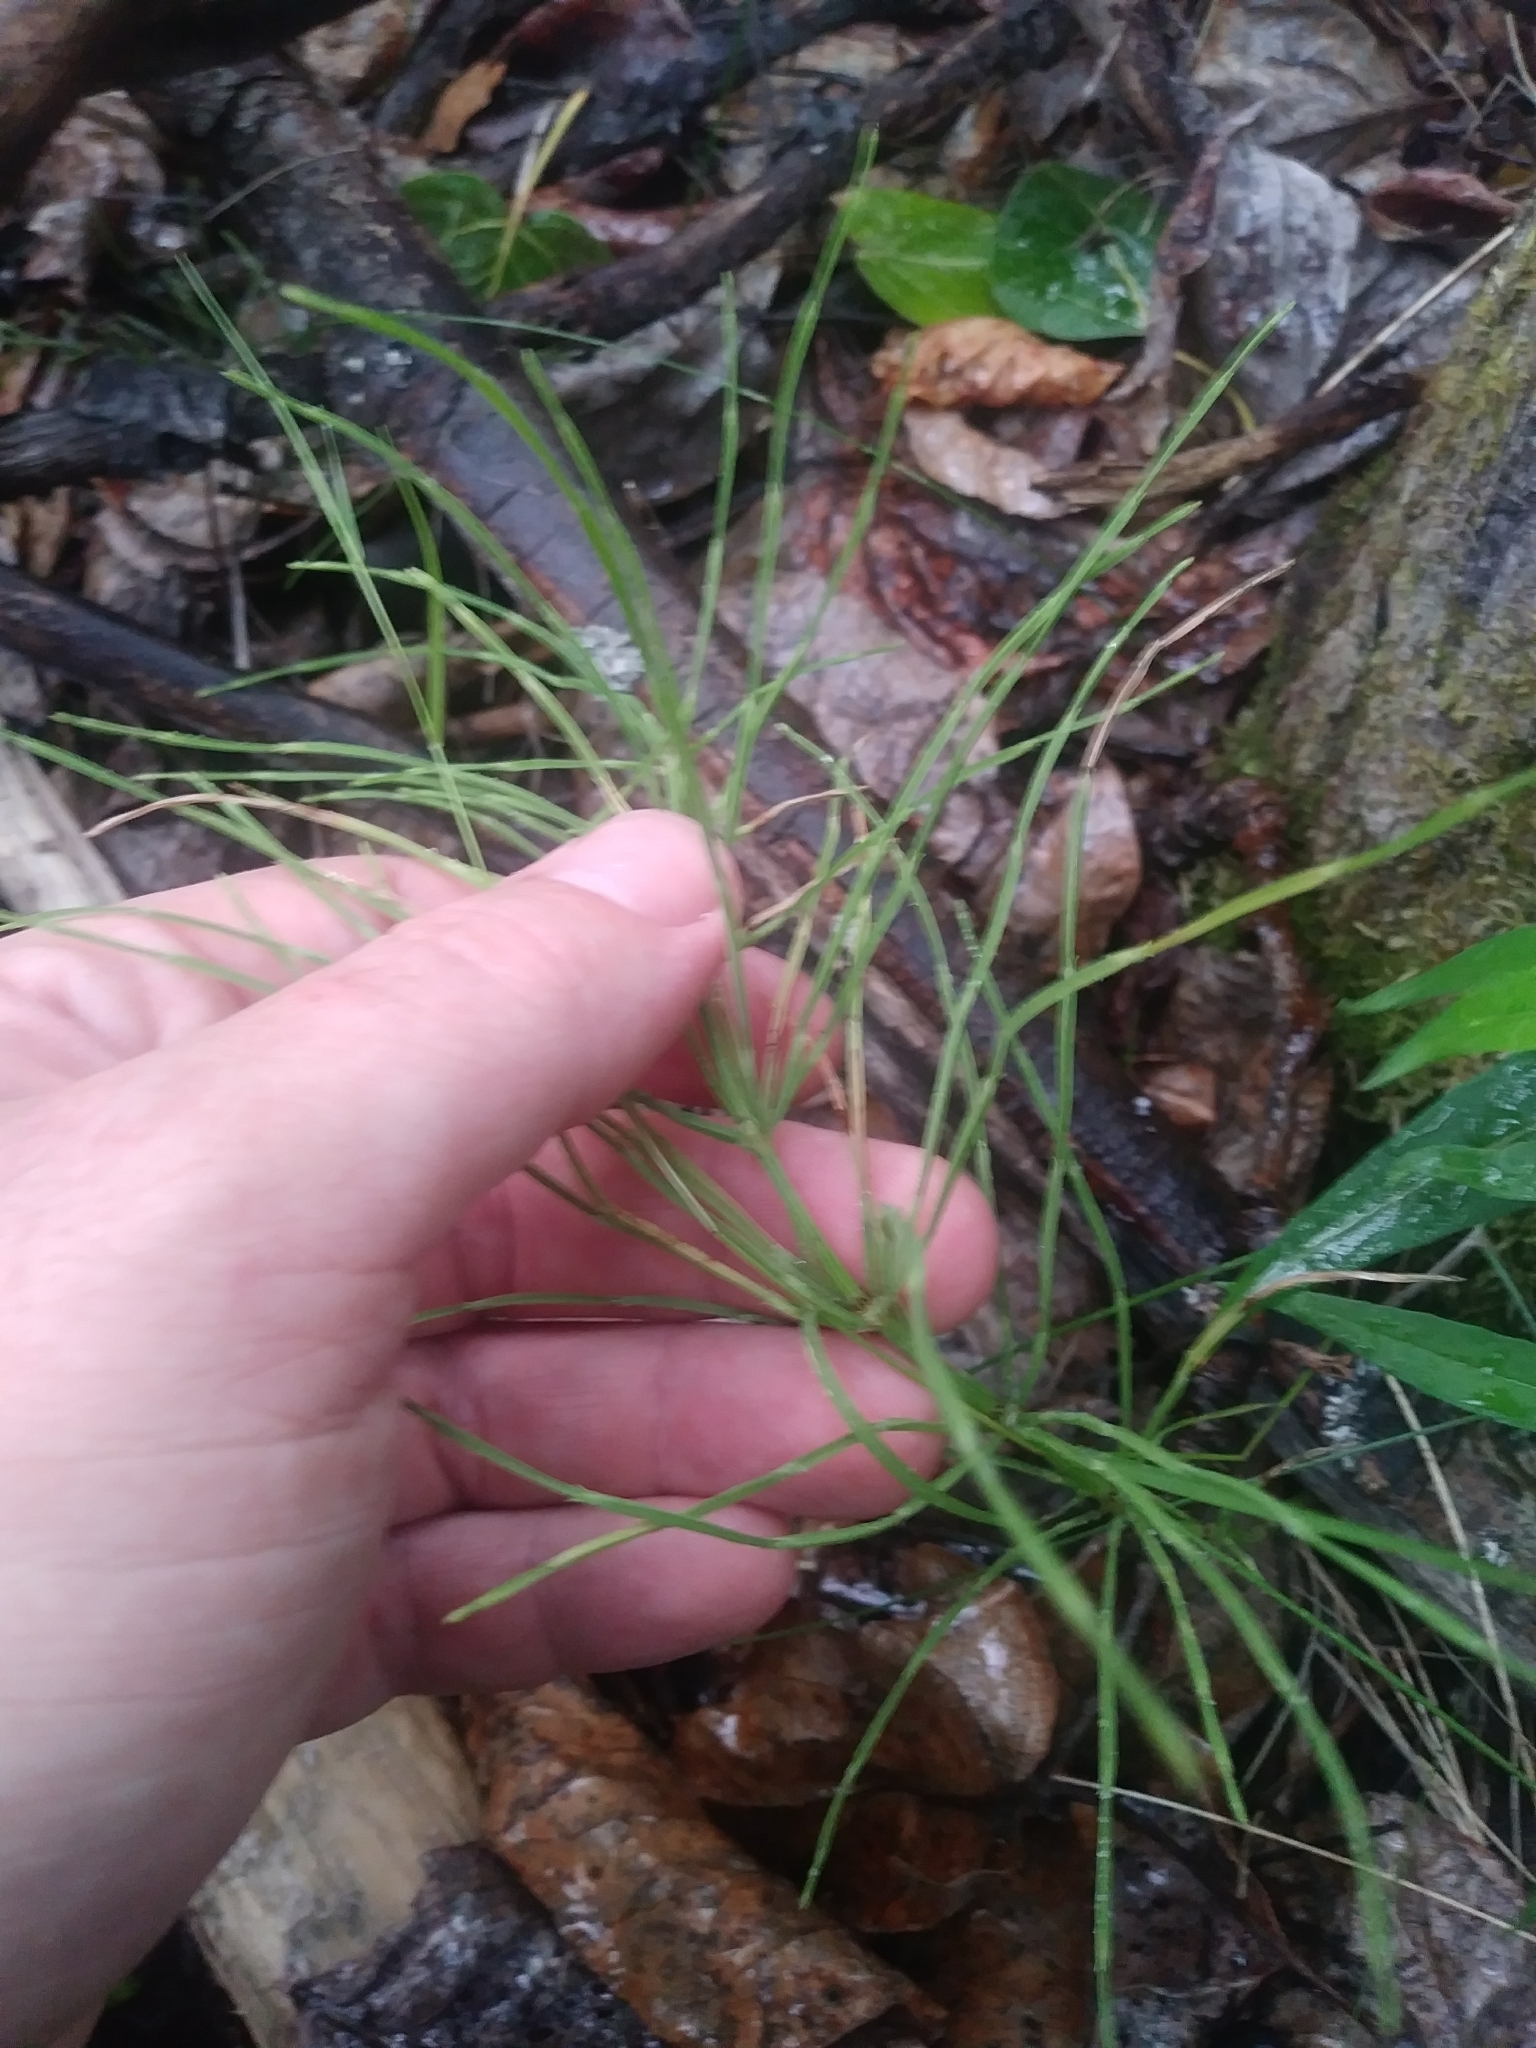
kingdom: Plantae
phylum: Tracheophyta
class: Polypodiopsida
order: Equisetales
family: Equisetaceae
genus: Equisetum
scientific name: Equisetum arvense
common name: Field horsetail
